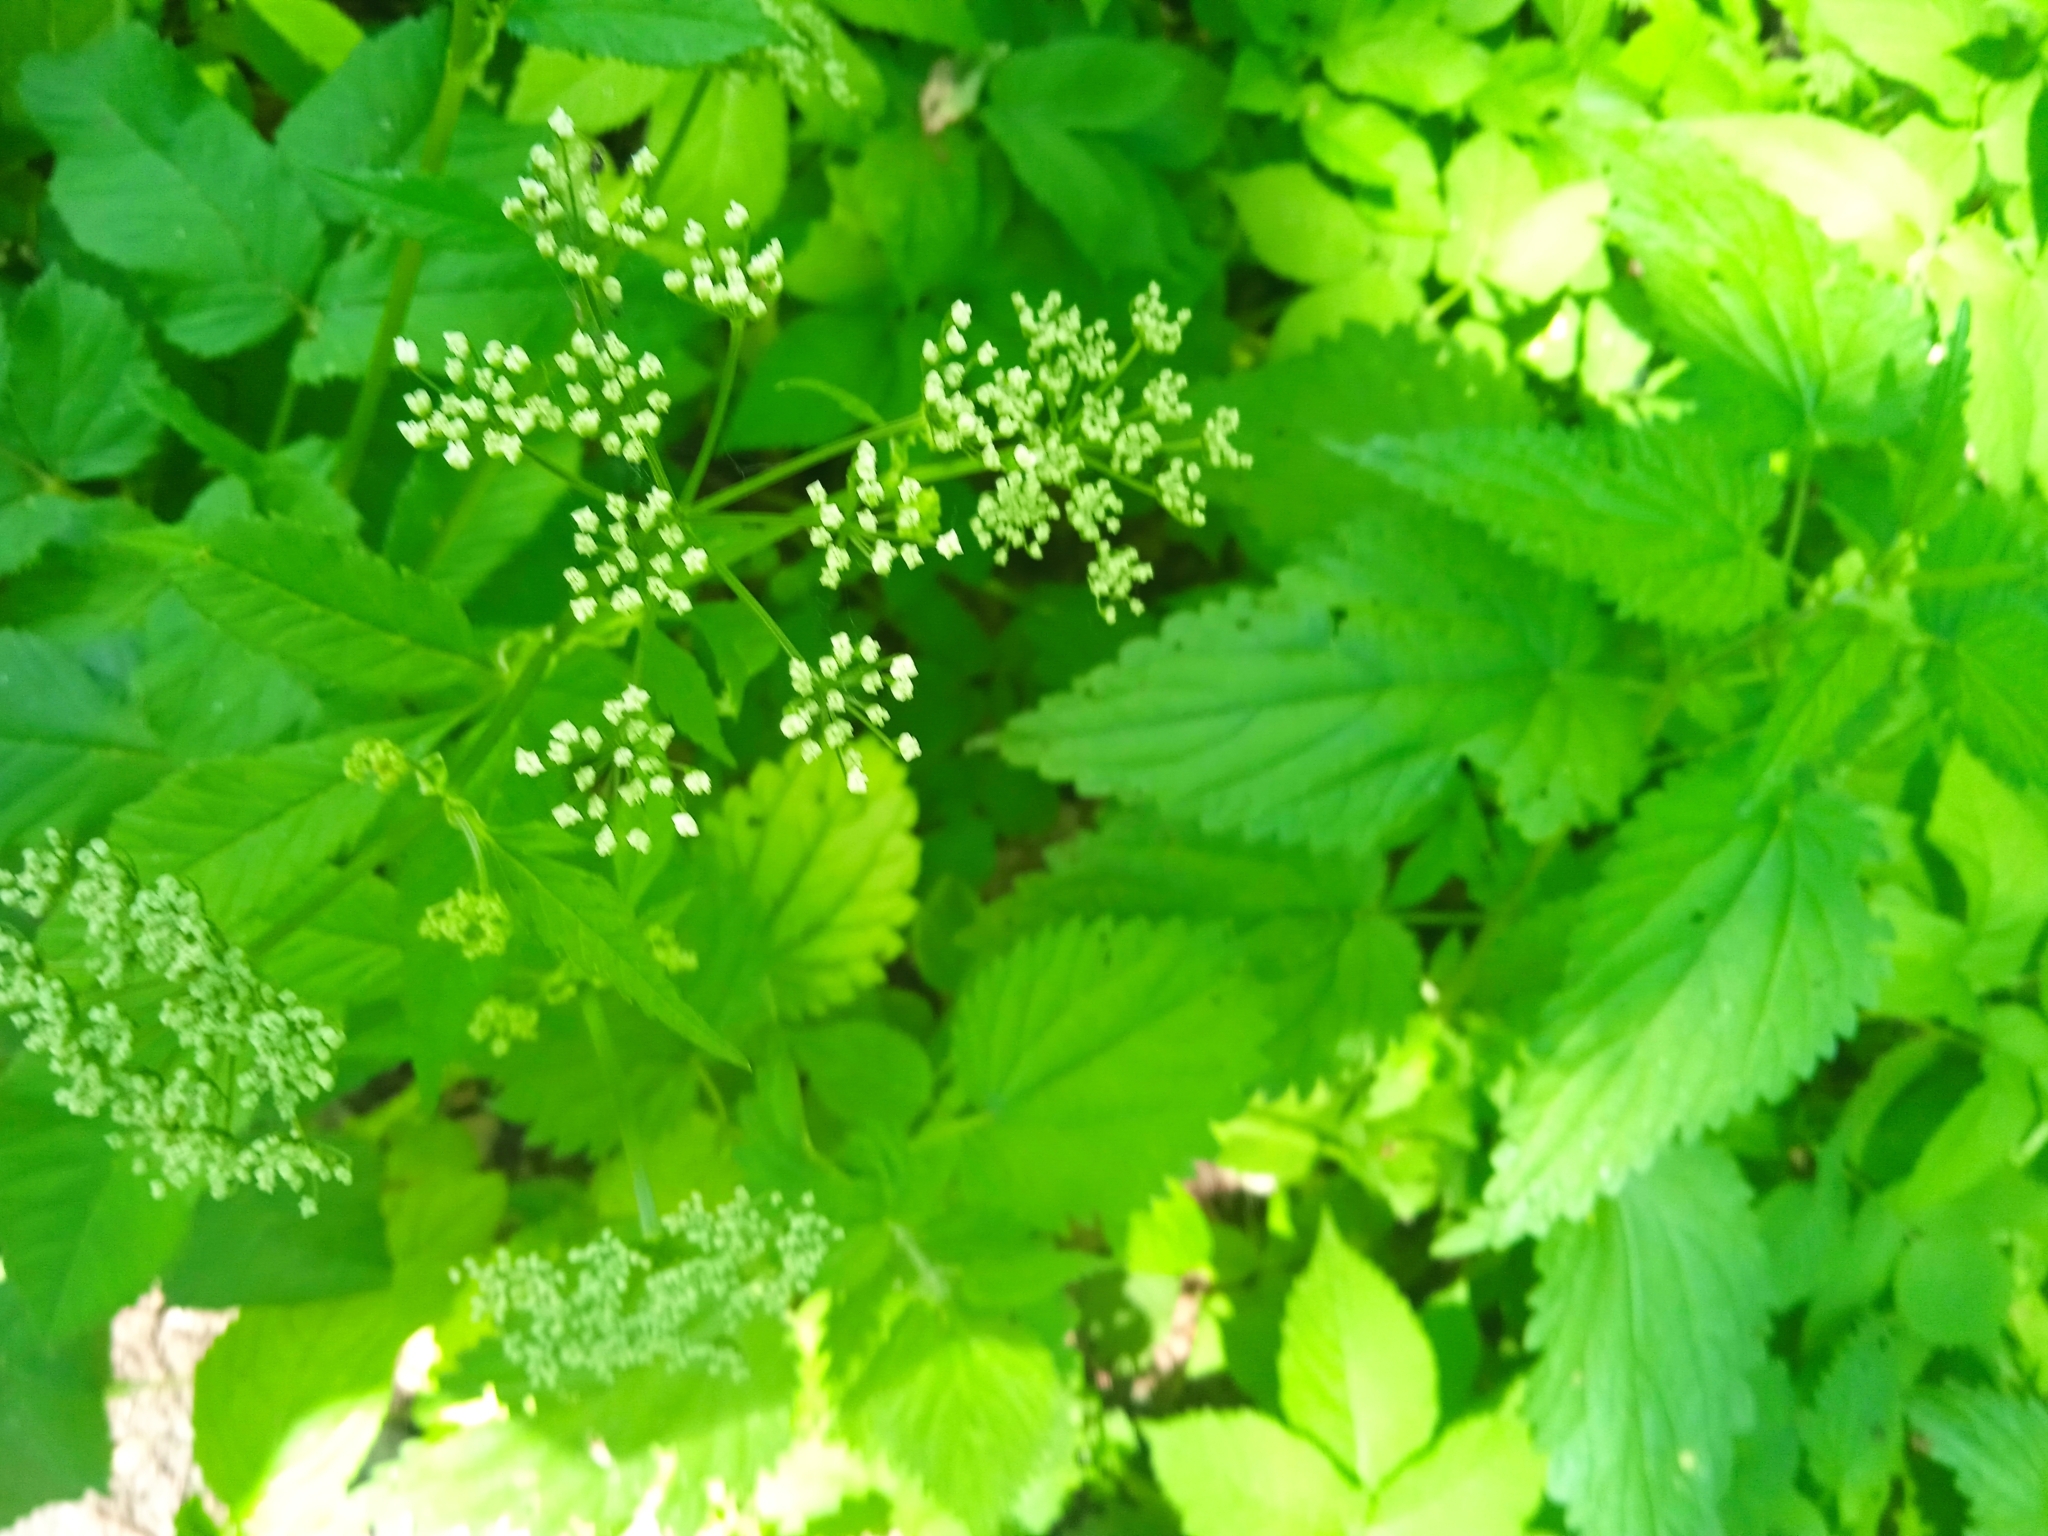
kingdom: Plantae
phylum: Tracheophyta
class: Magnoliopsida
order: Apiales
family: Apiaceae
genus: Aegopodium
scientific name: Aegopodium podagraria
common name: Ground-elder
